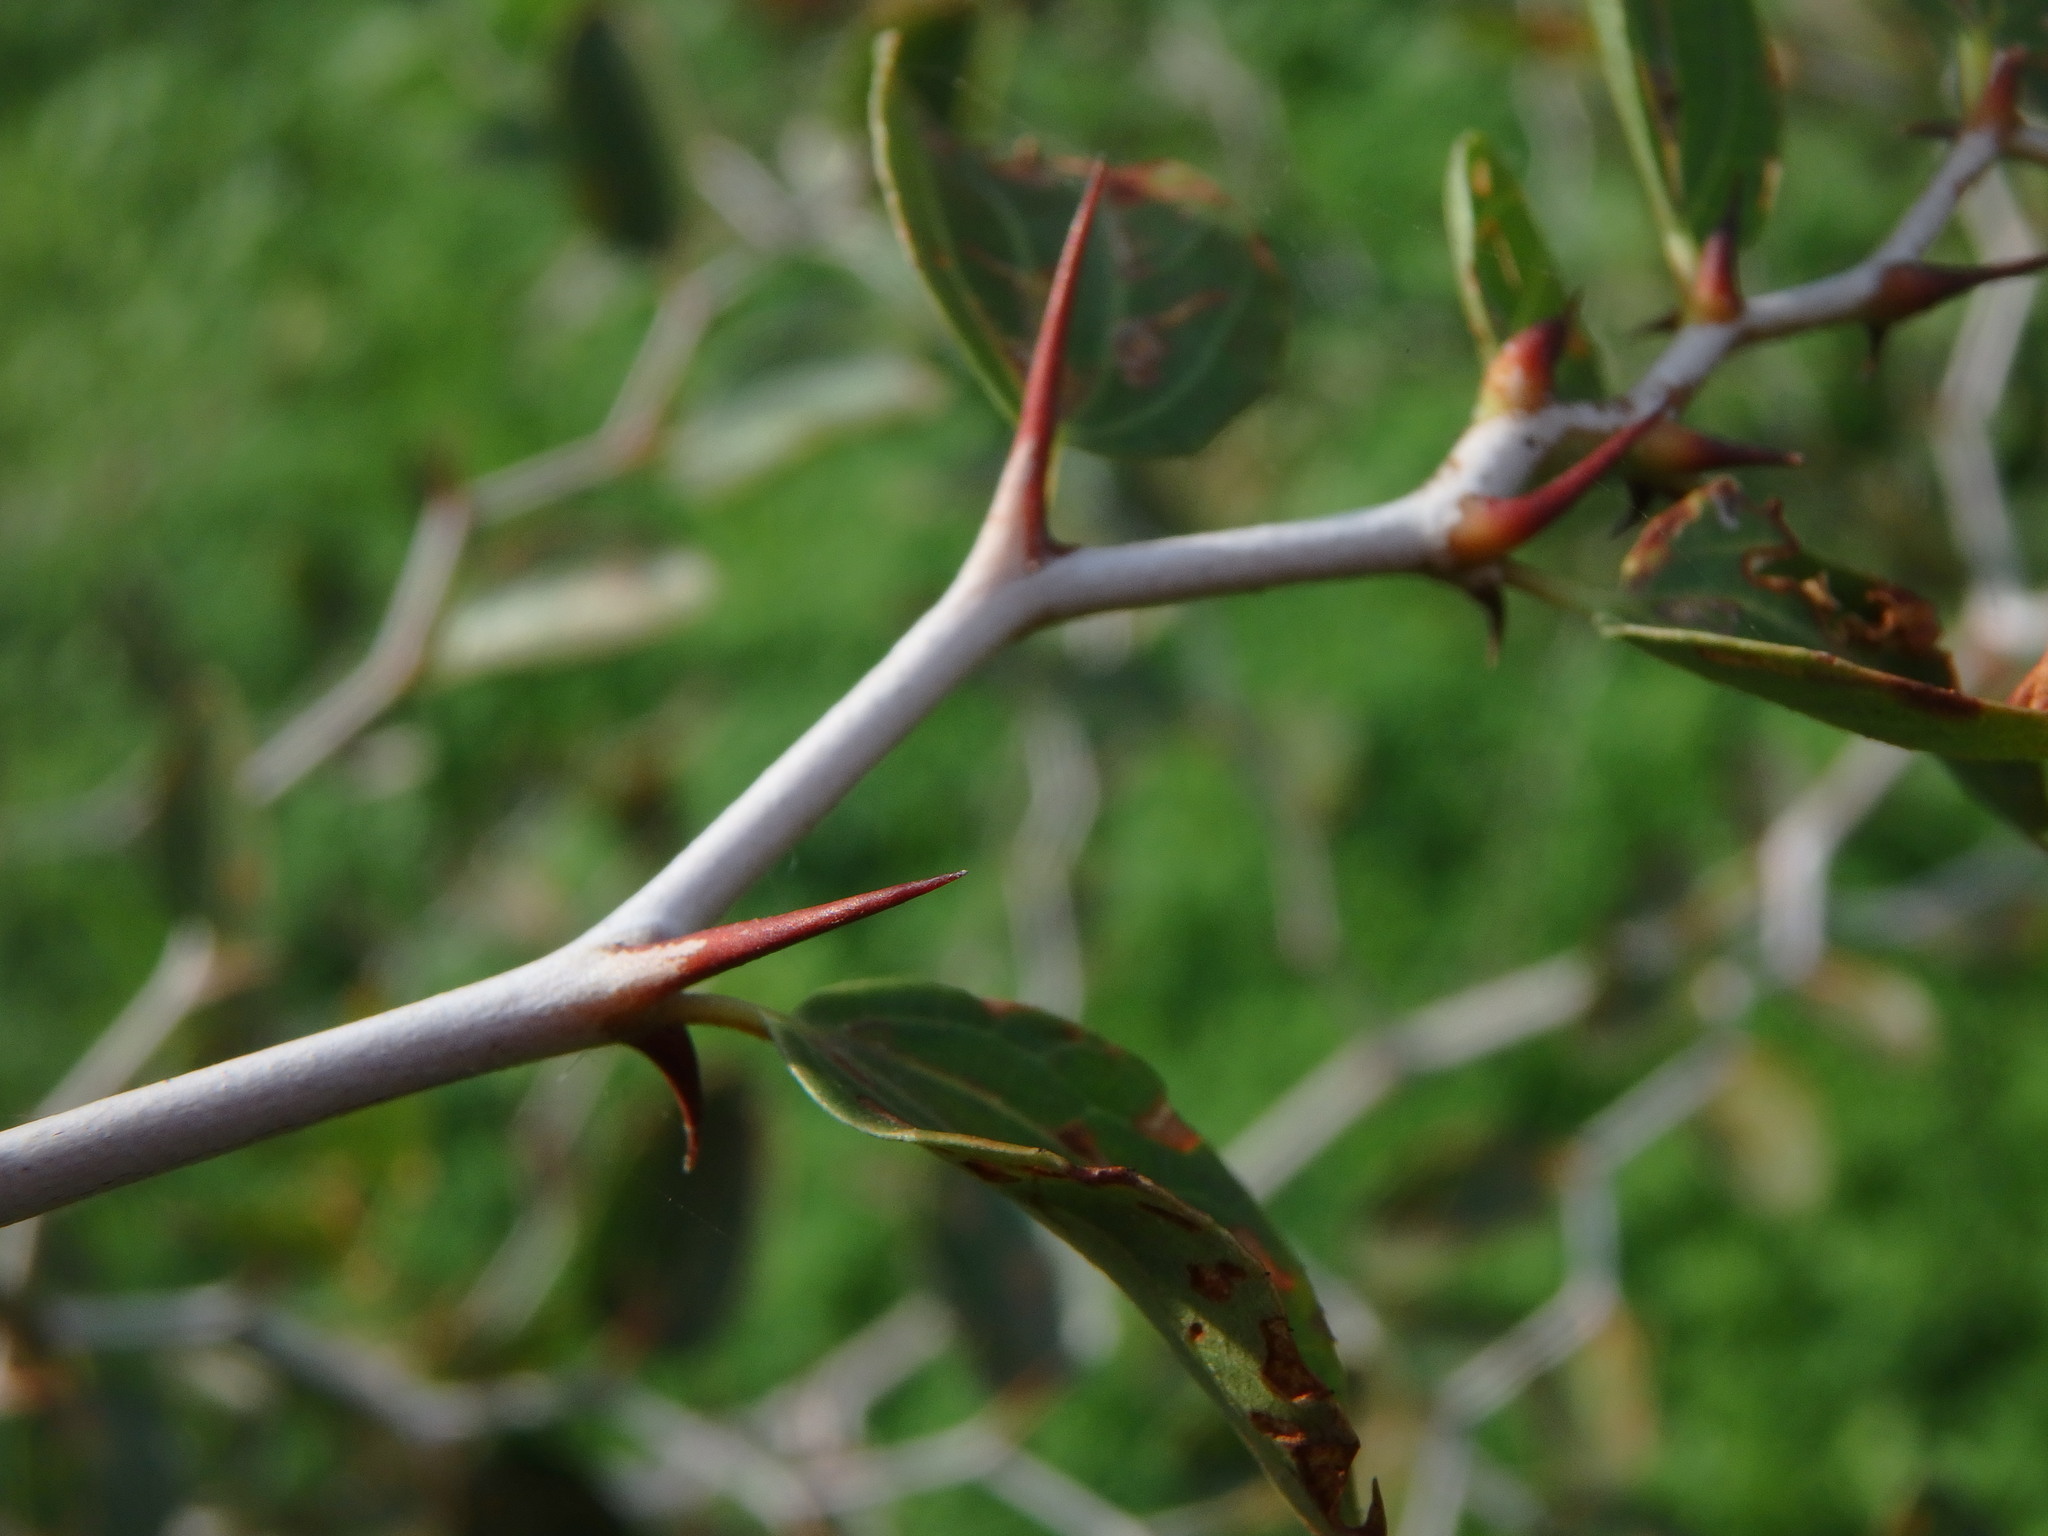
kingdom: Plantae
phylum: Tracheophyta
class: Magnoliopsida
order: Rosales
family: Rhamnaceae
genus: Ziziphus
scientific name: Ziziphus lotus
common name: Lotus
